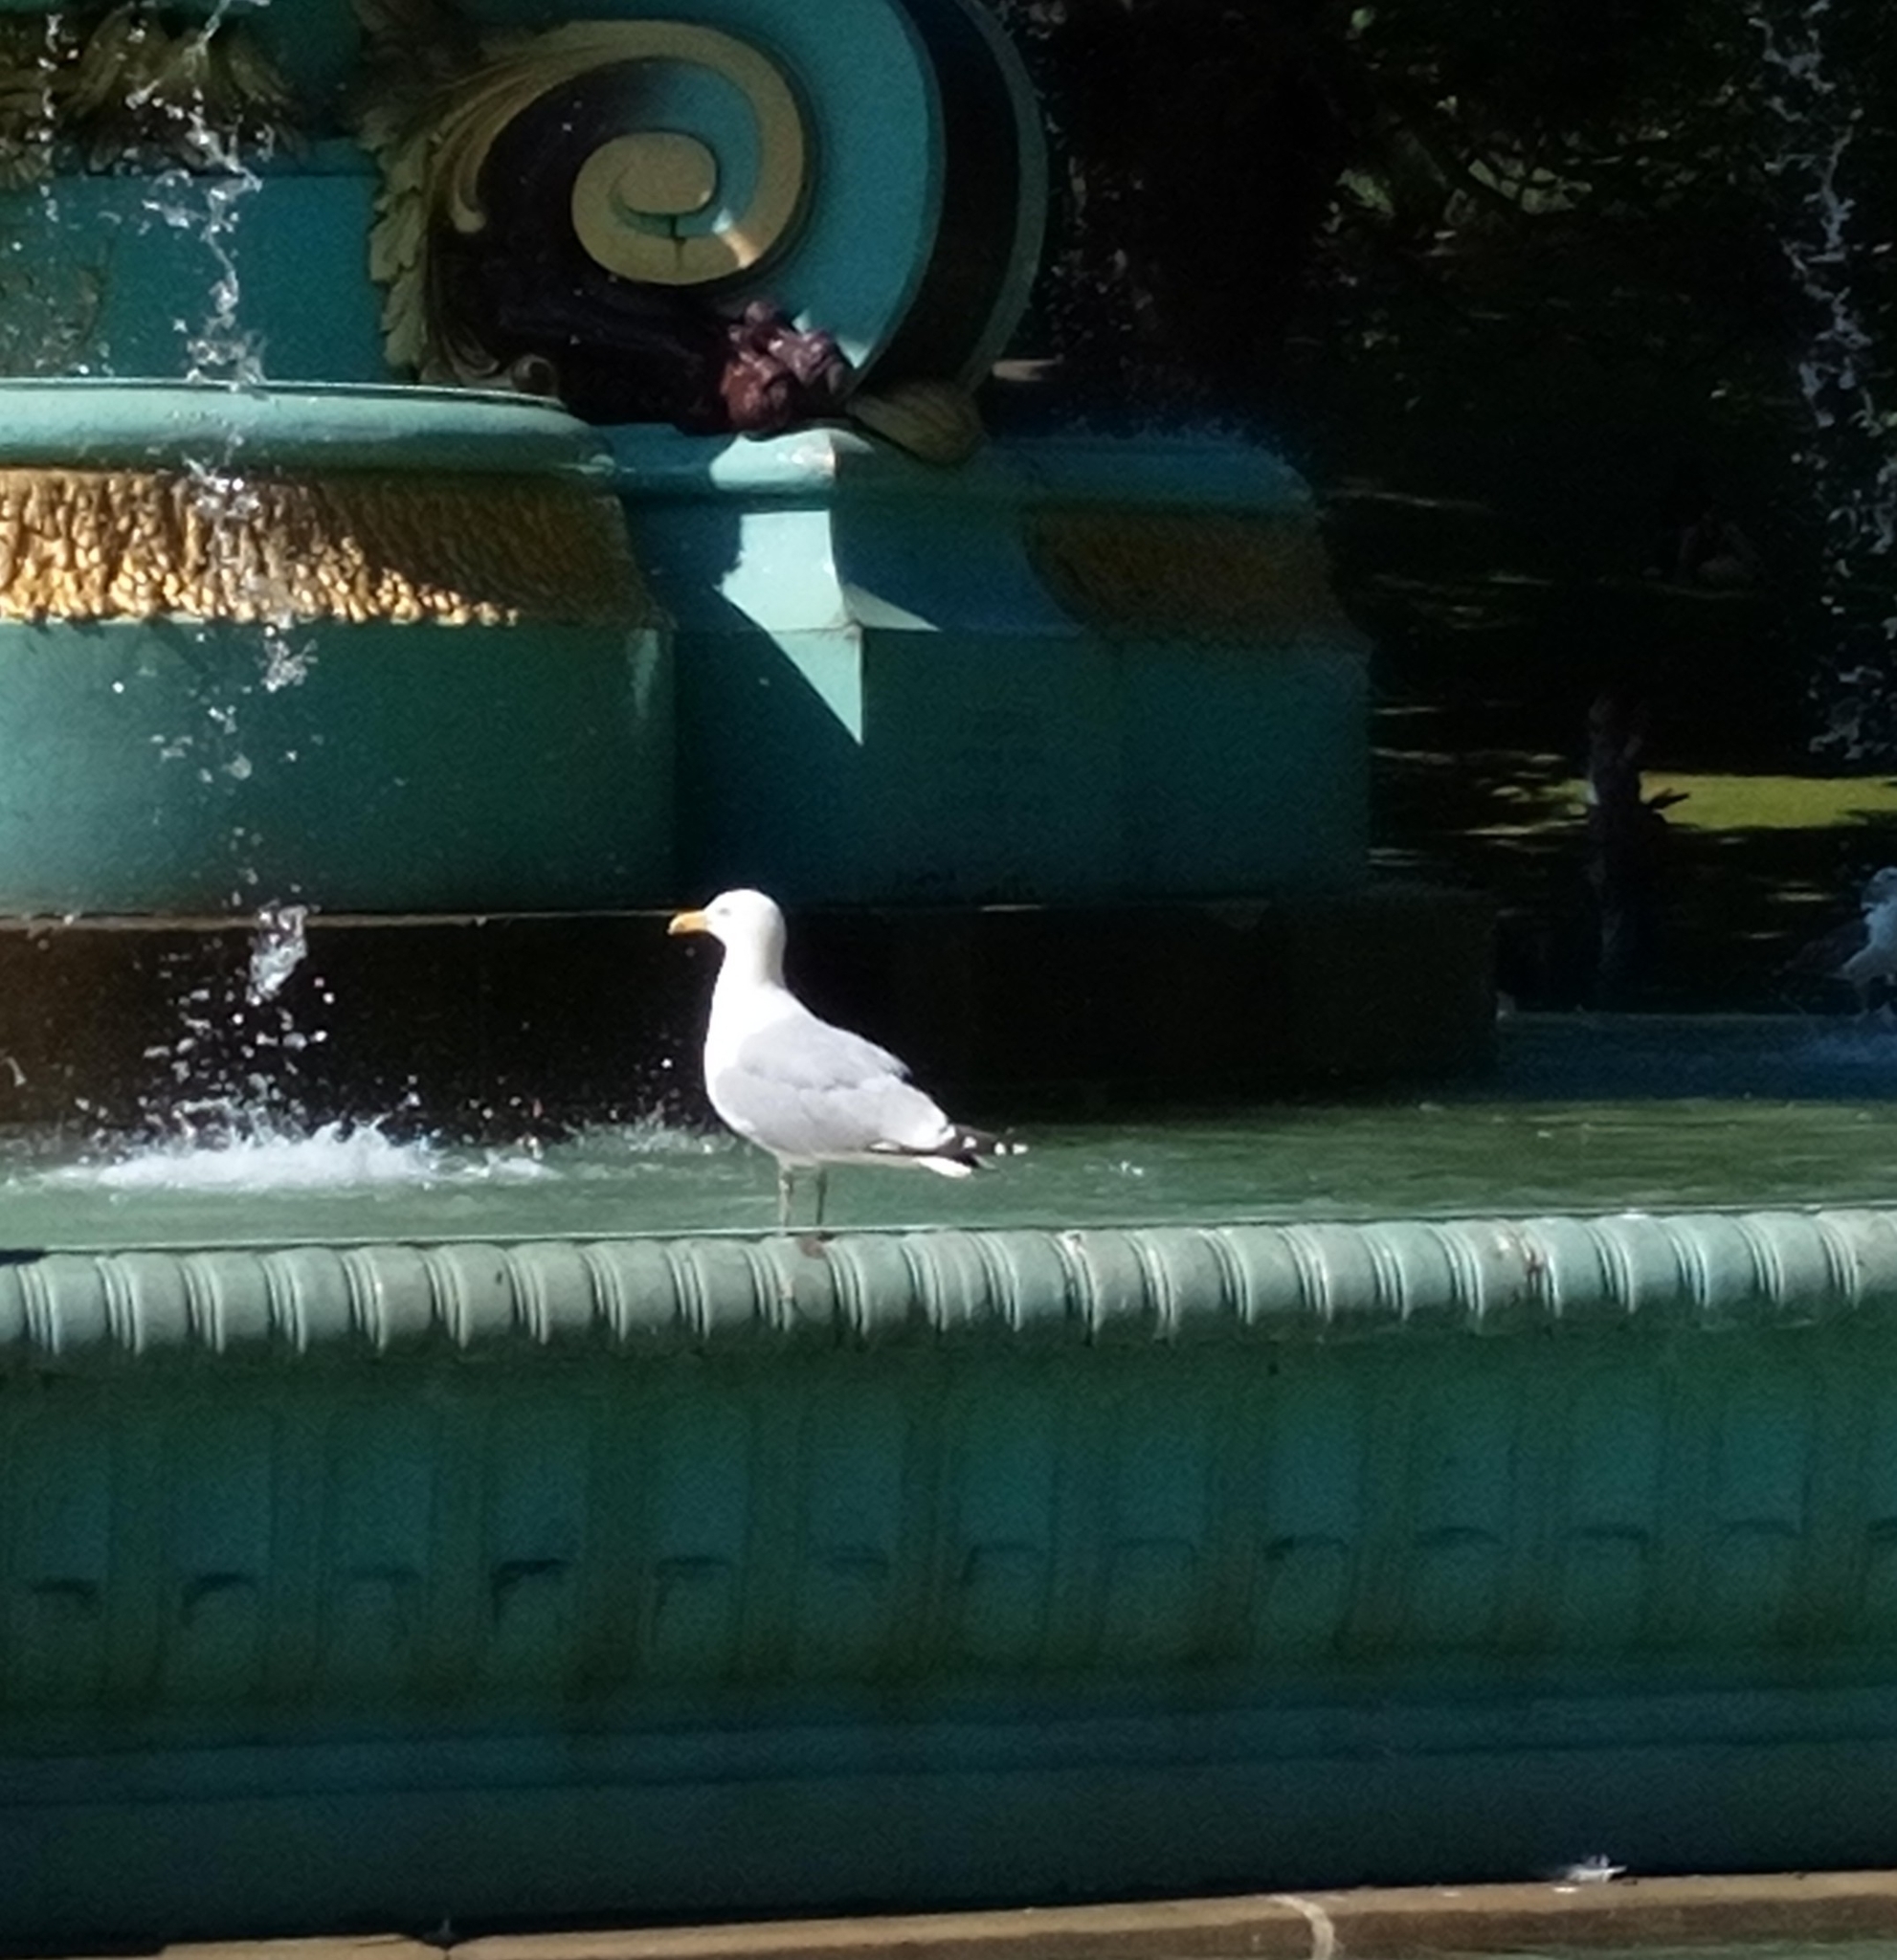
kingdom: Animalia
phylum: Chordata
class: Aves
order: Charadriiformes
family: Laridae
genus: Larus
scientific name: Larus argentatus
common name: Herring gull
